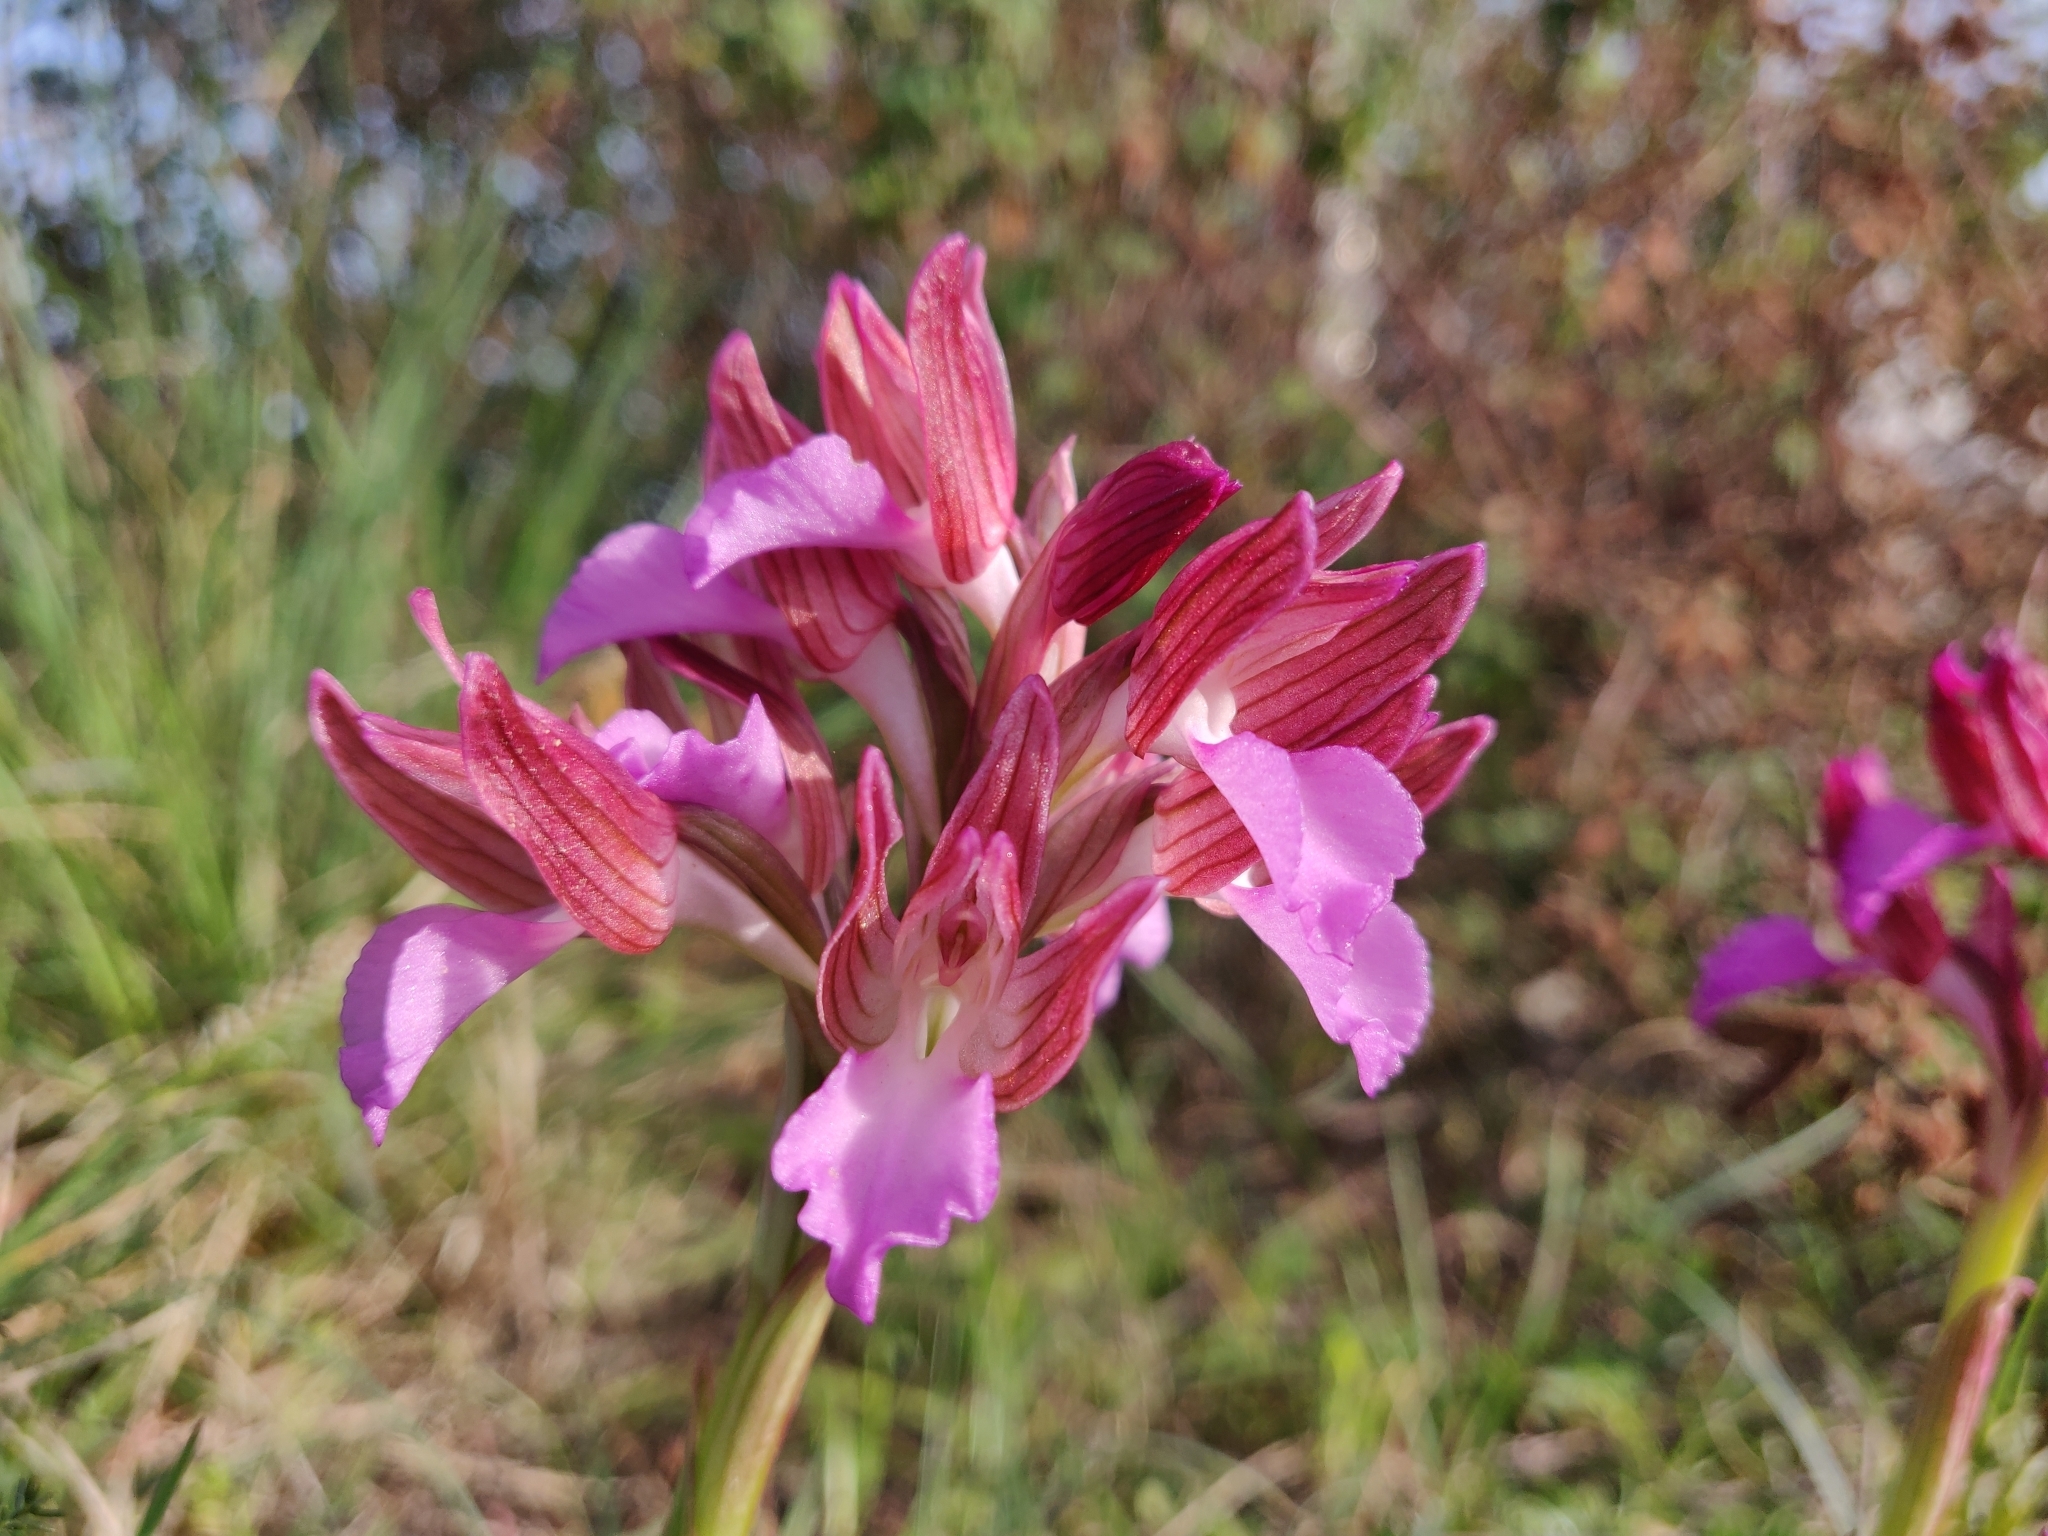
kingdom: Plantae
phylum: Tracheophyta
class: Liliopsida
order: Asparagales
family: Orchidaceae
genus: Anacamptis
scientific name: Anacamptis papilionacea
